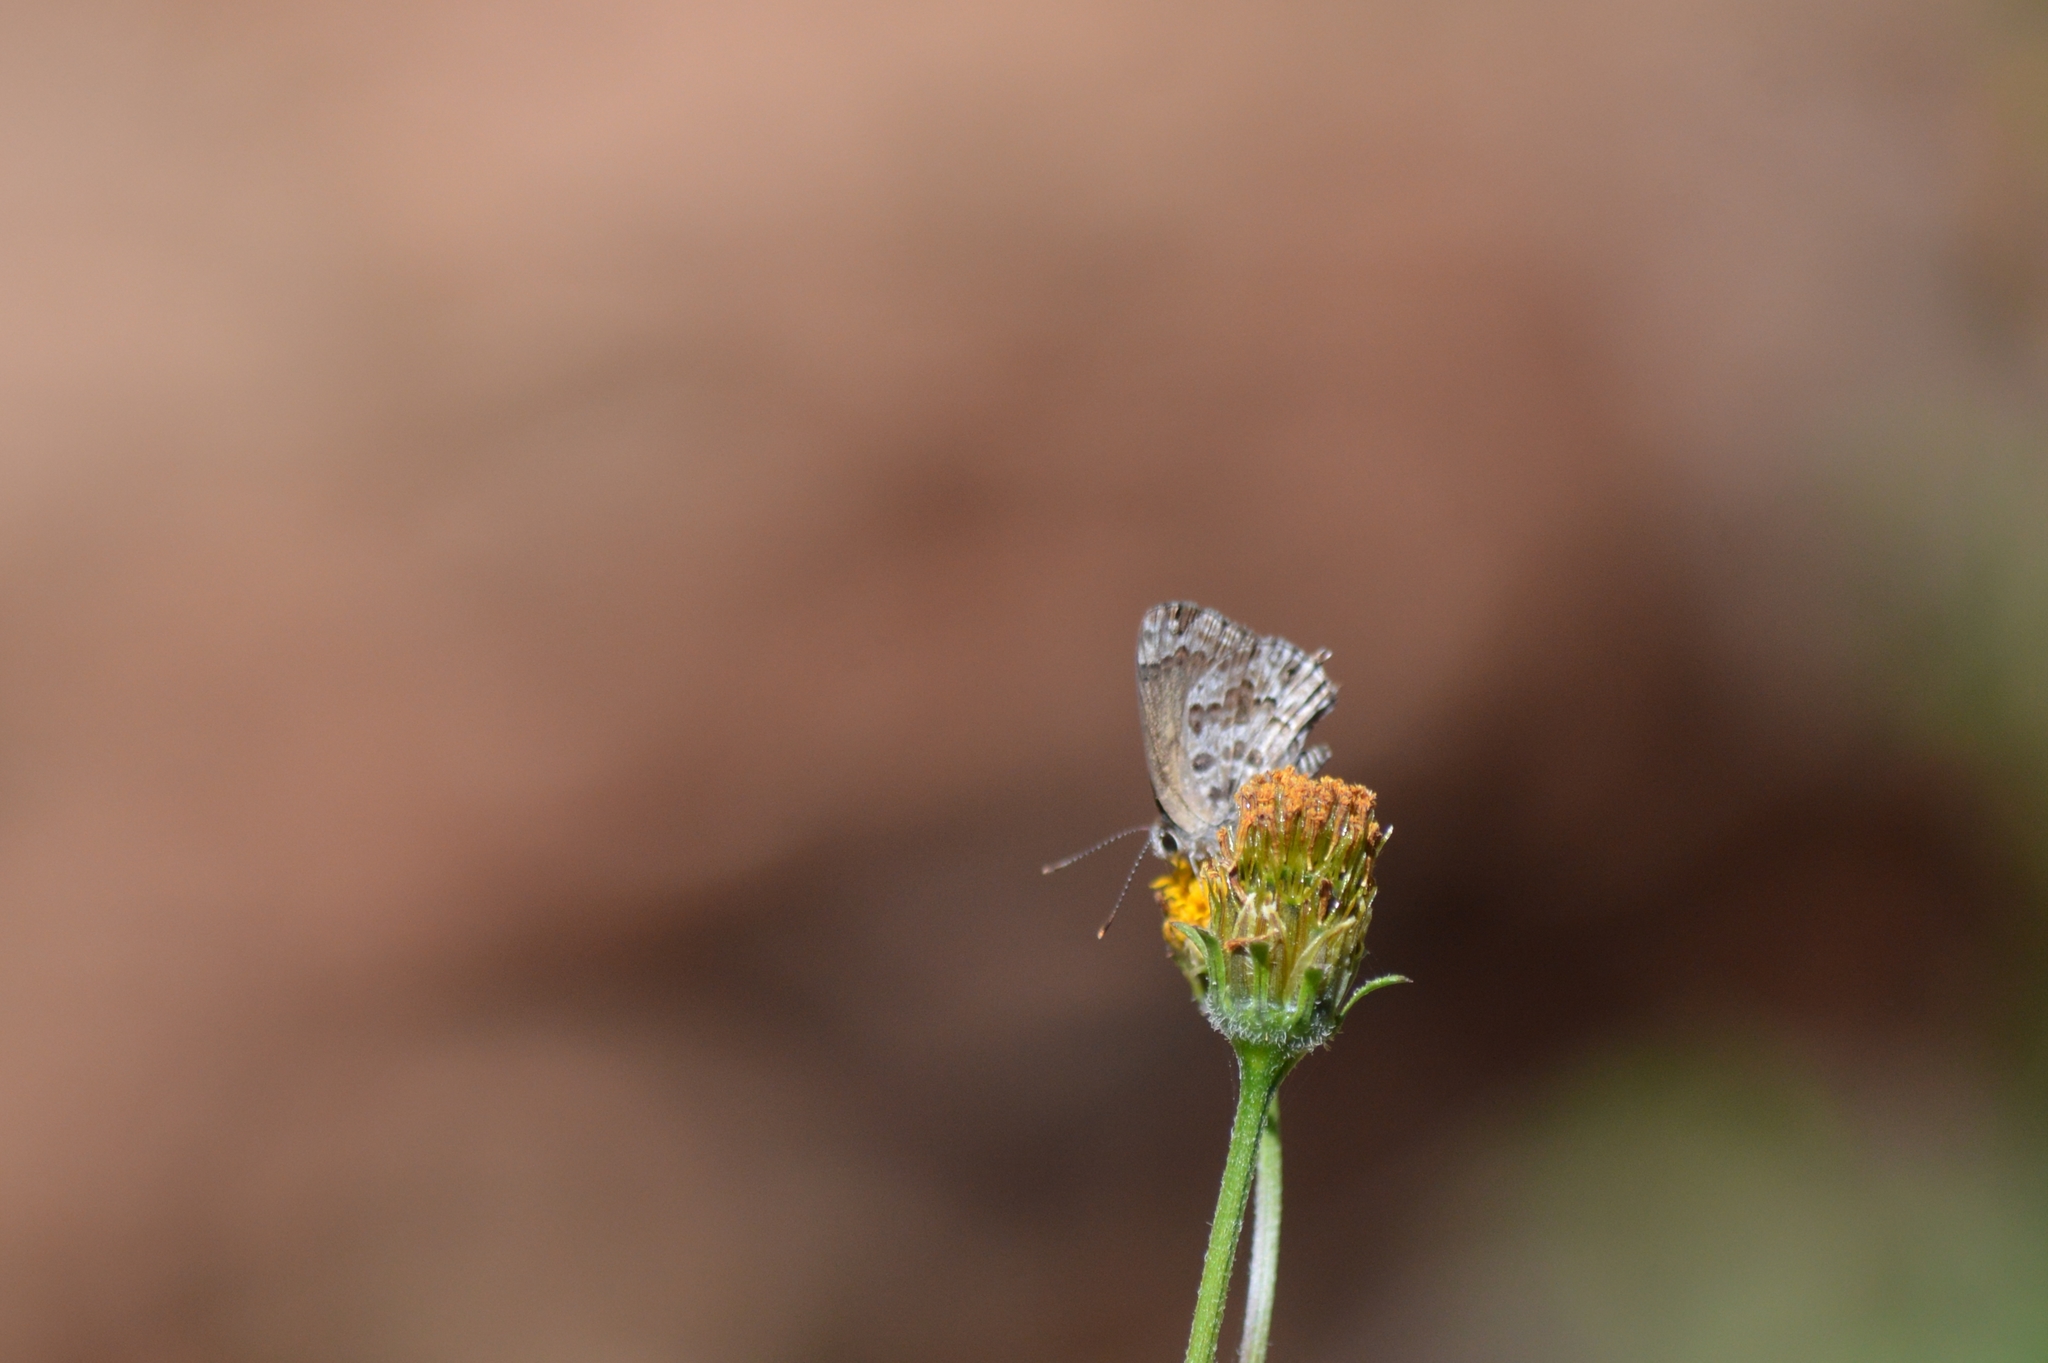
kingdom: Animalia
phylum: Arthropoda
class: Insecta
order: Lepidoptera
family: Lycaenidae
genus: Strymon
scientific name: Strymon astiocha
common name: Gray-spotted scrub-hairstreak
